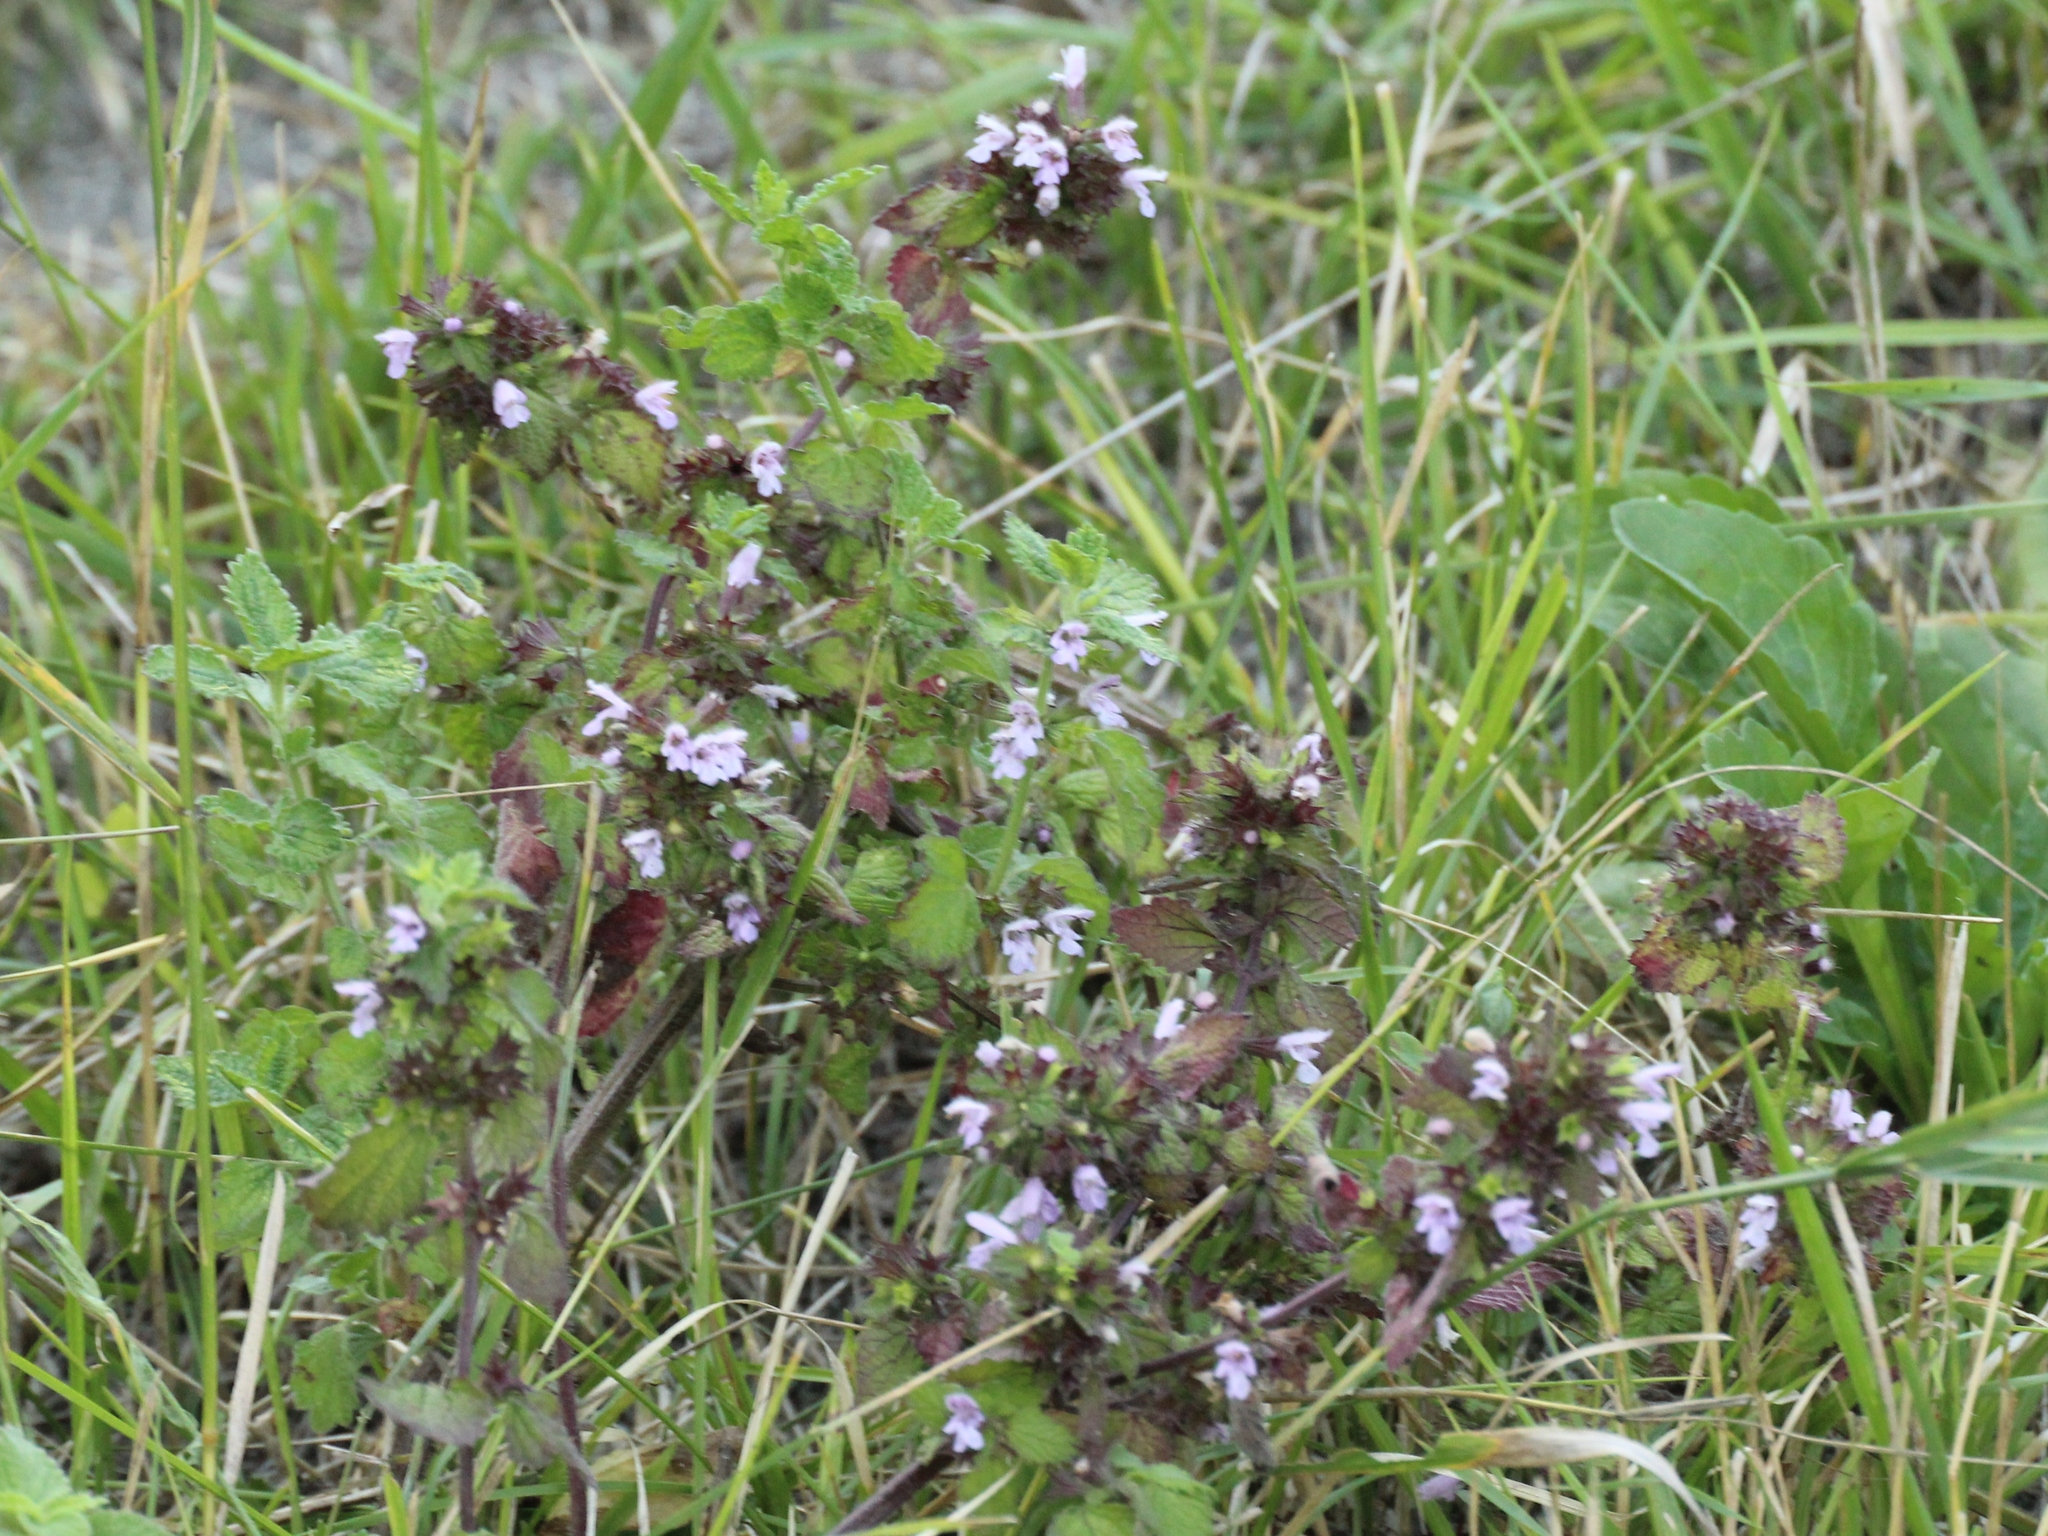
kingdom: Plantae
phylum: Tracheophyta
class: Magnoliopsida
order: Lamiales
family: Lamiaceae
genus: Ballota
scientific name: Ballota nigra
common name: Black horehound
